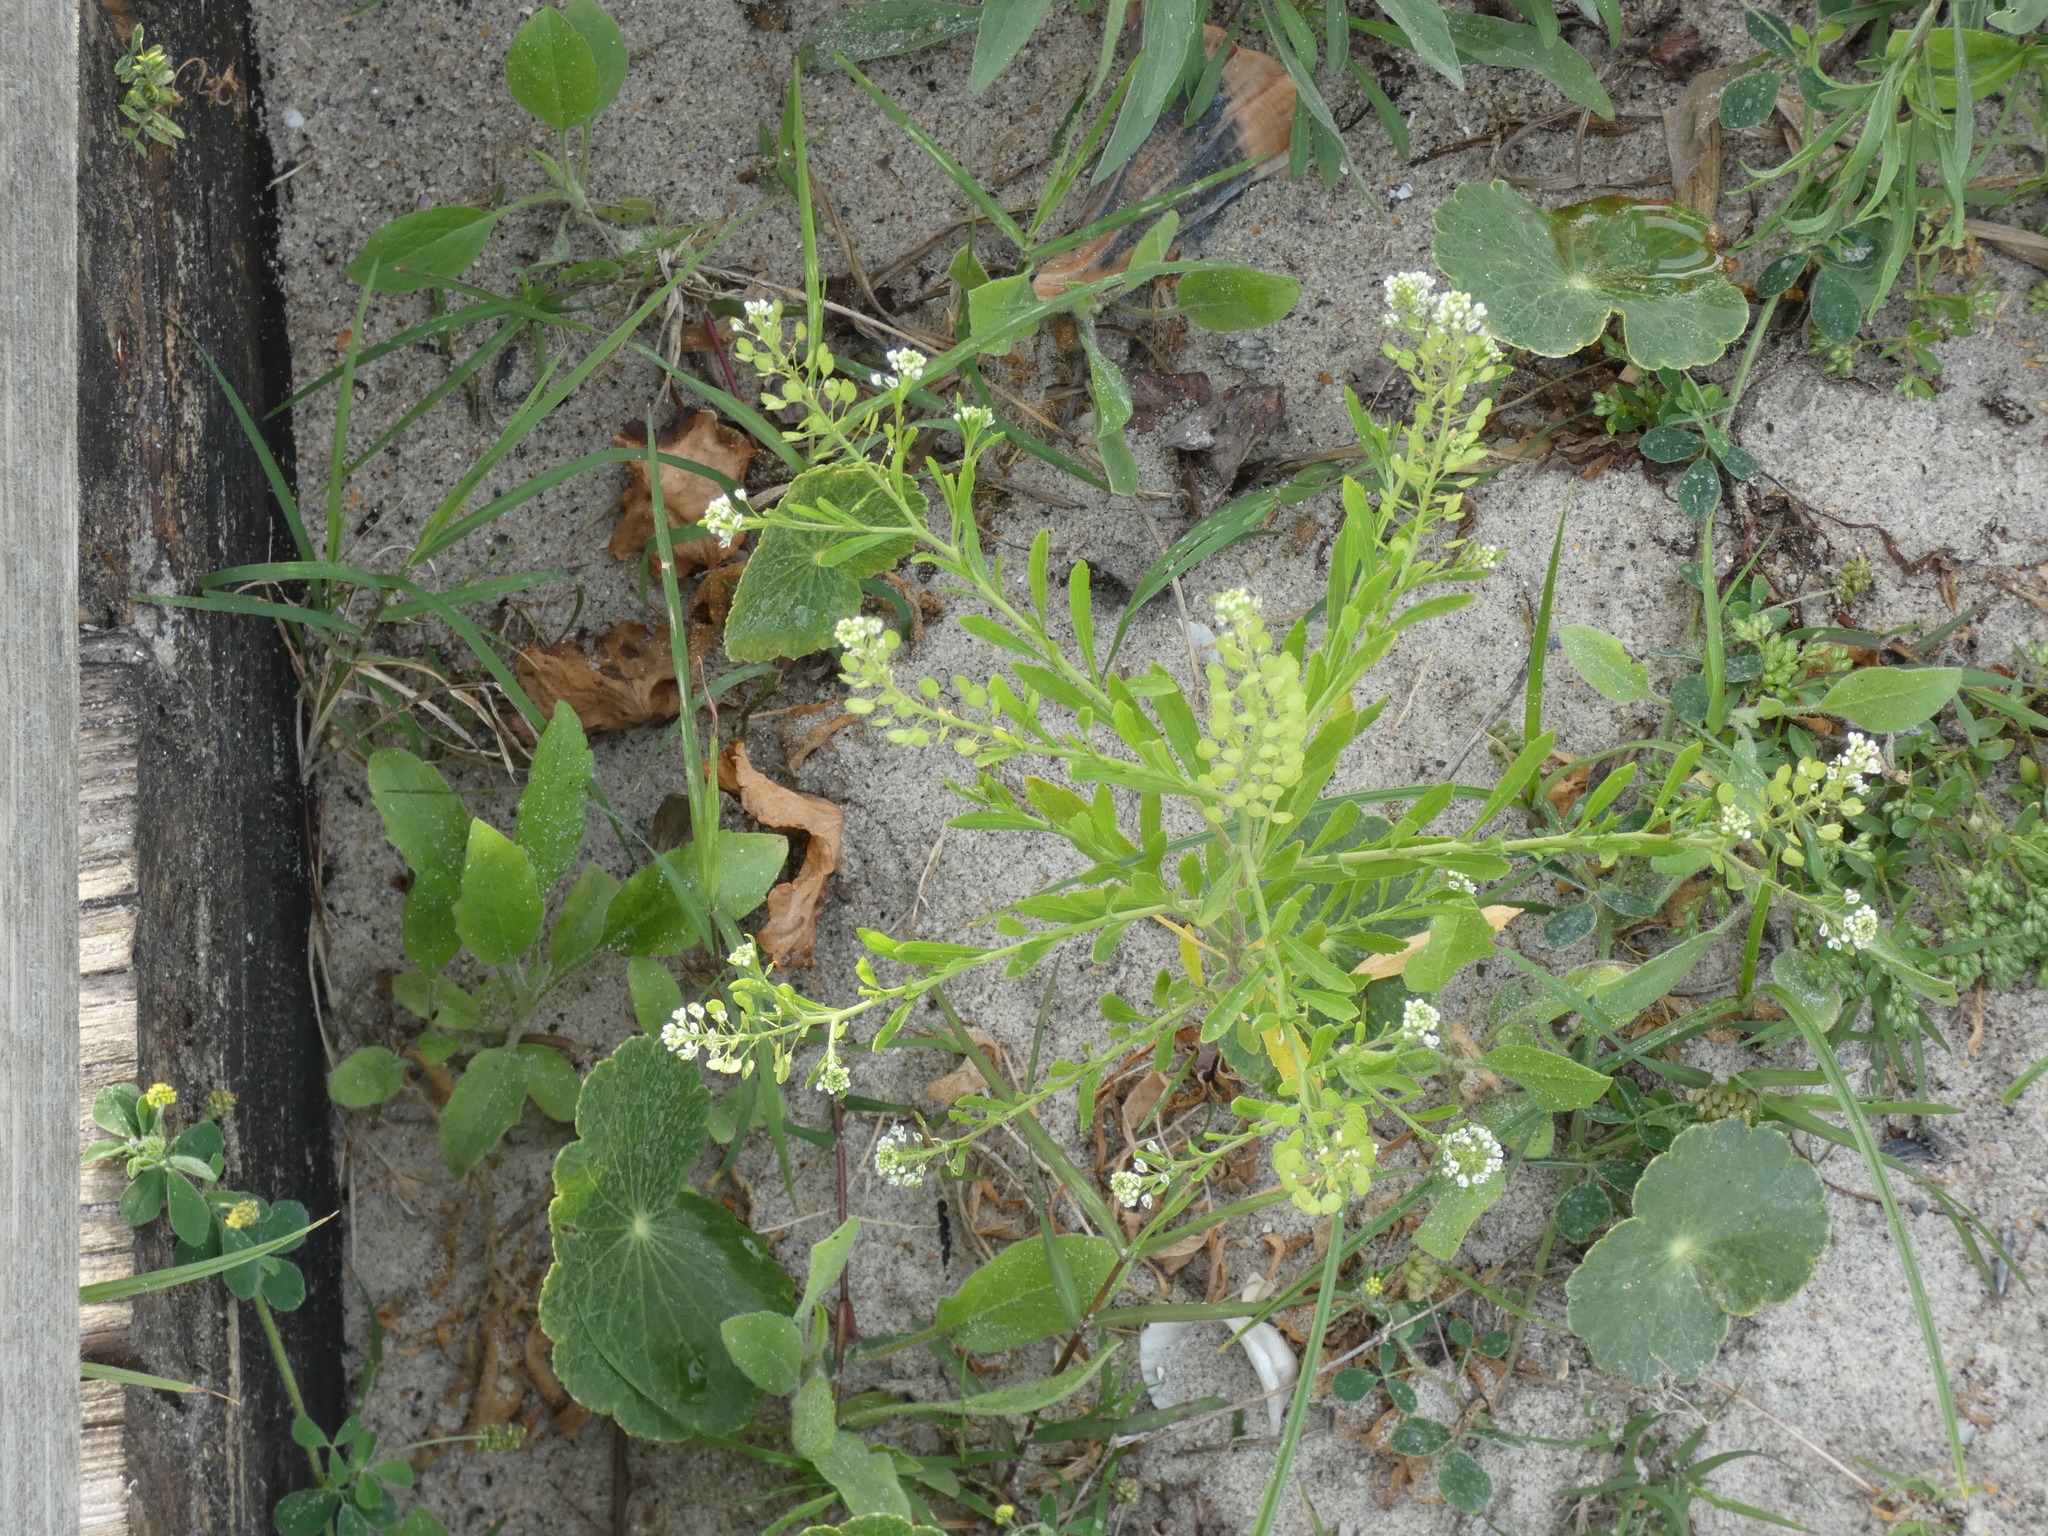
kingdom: Plantae
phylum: Tracheophyta
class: Magnoliopsida
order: Brassicales
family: Brassicaceae
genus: Lepidium
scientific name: Lepidium virginicum
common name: Least pepperwort
